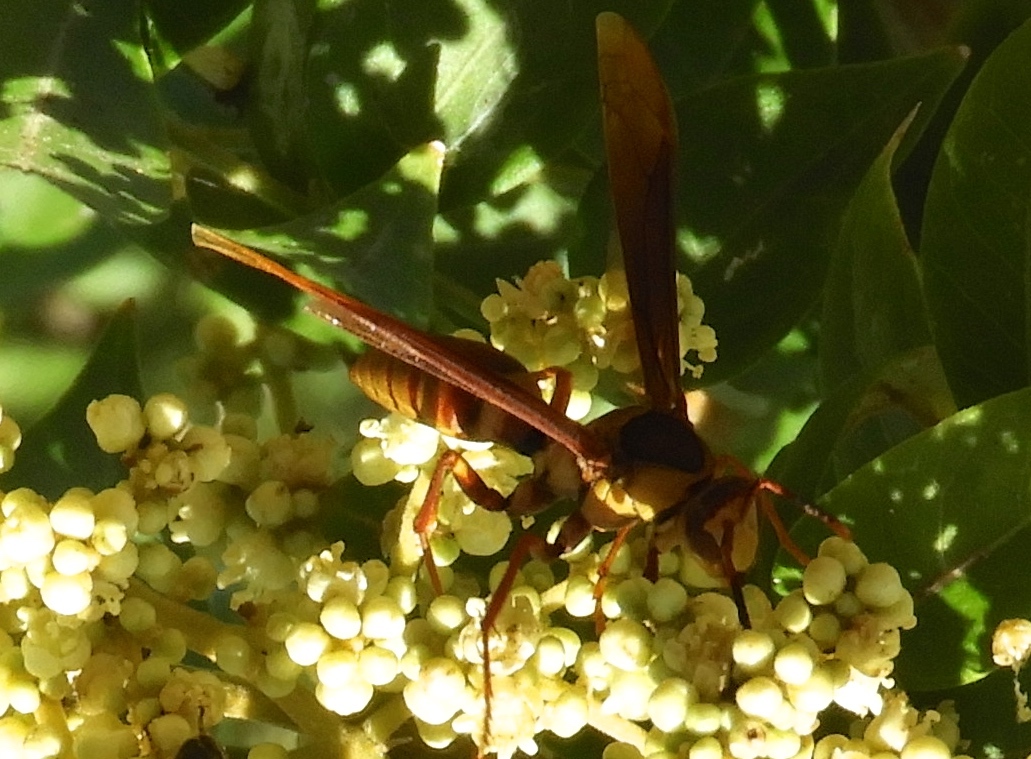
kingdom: Animalia
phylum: Arthropoda
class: Insecta
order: Hymenoptera
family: Eumenidae
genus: Polistes
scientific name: Polistes major
